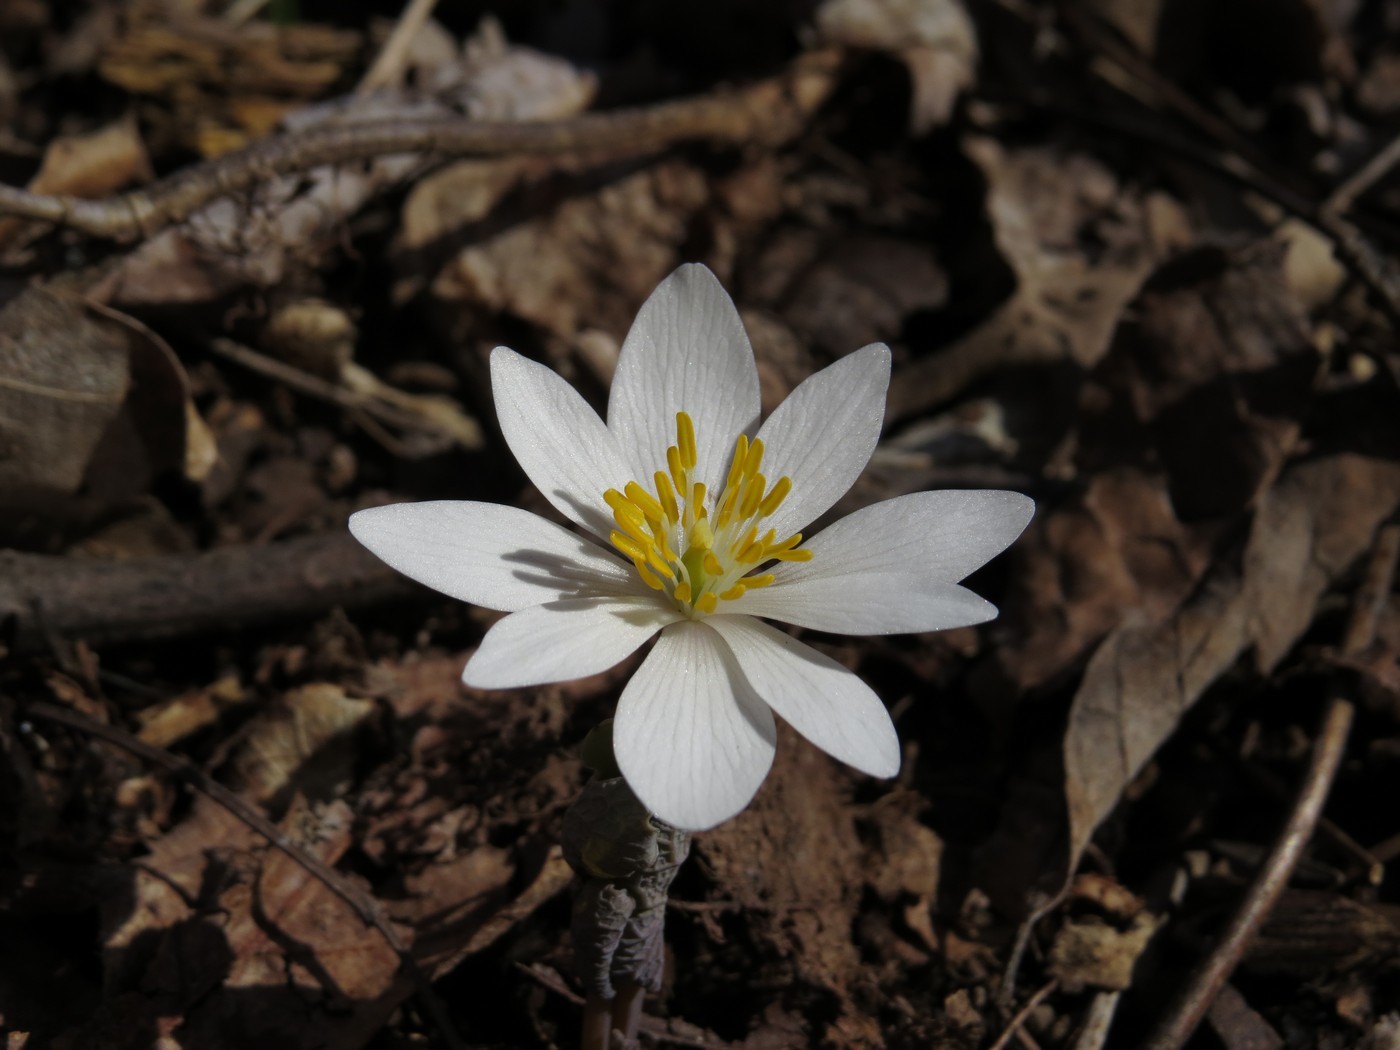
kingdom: Plantae
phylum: Tracheophyta
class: Magnoliopsida
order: Ranunculales
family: Papaveraceae
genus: Sanguinaria
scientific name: Sanguinaria canadensis
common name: Bloodroot
